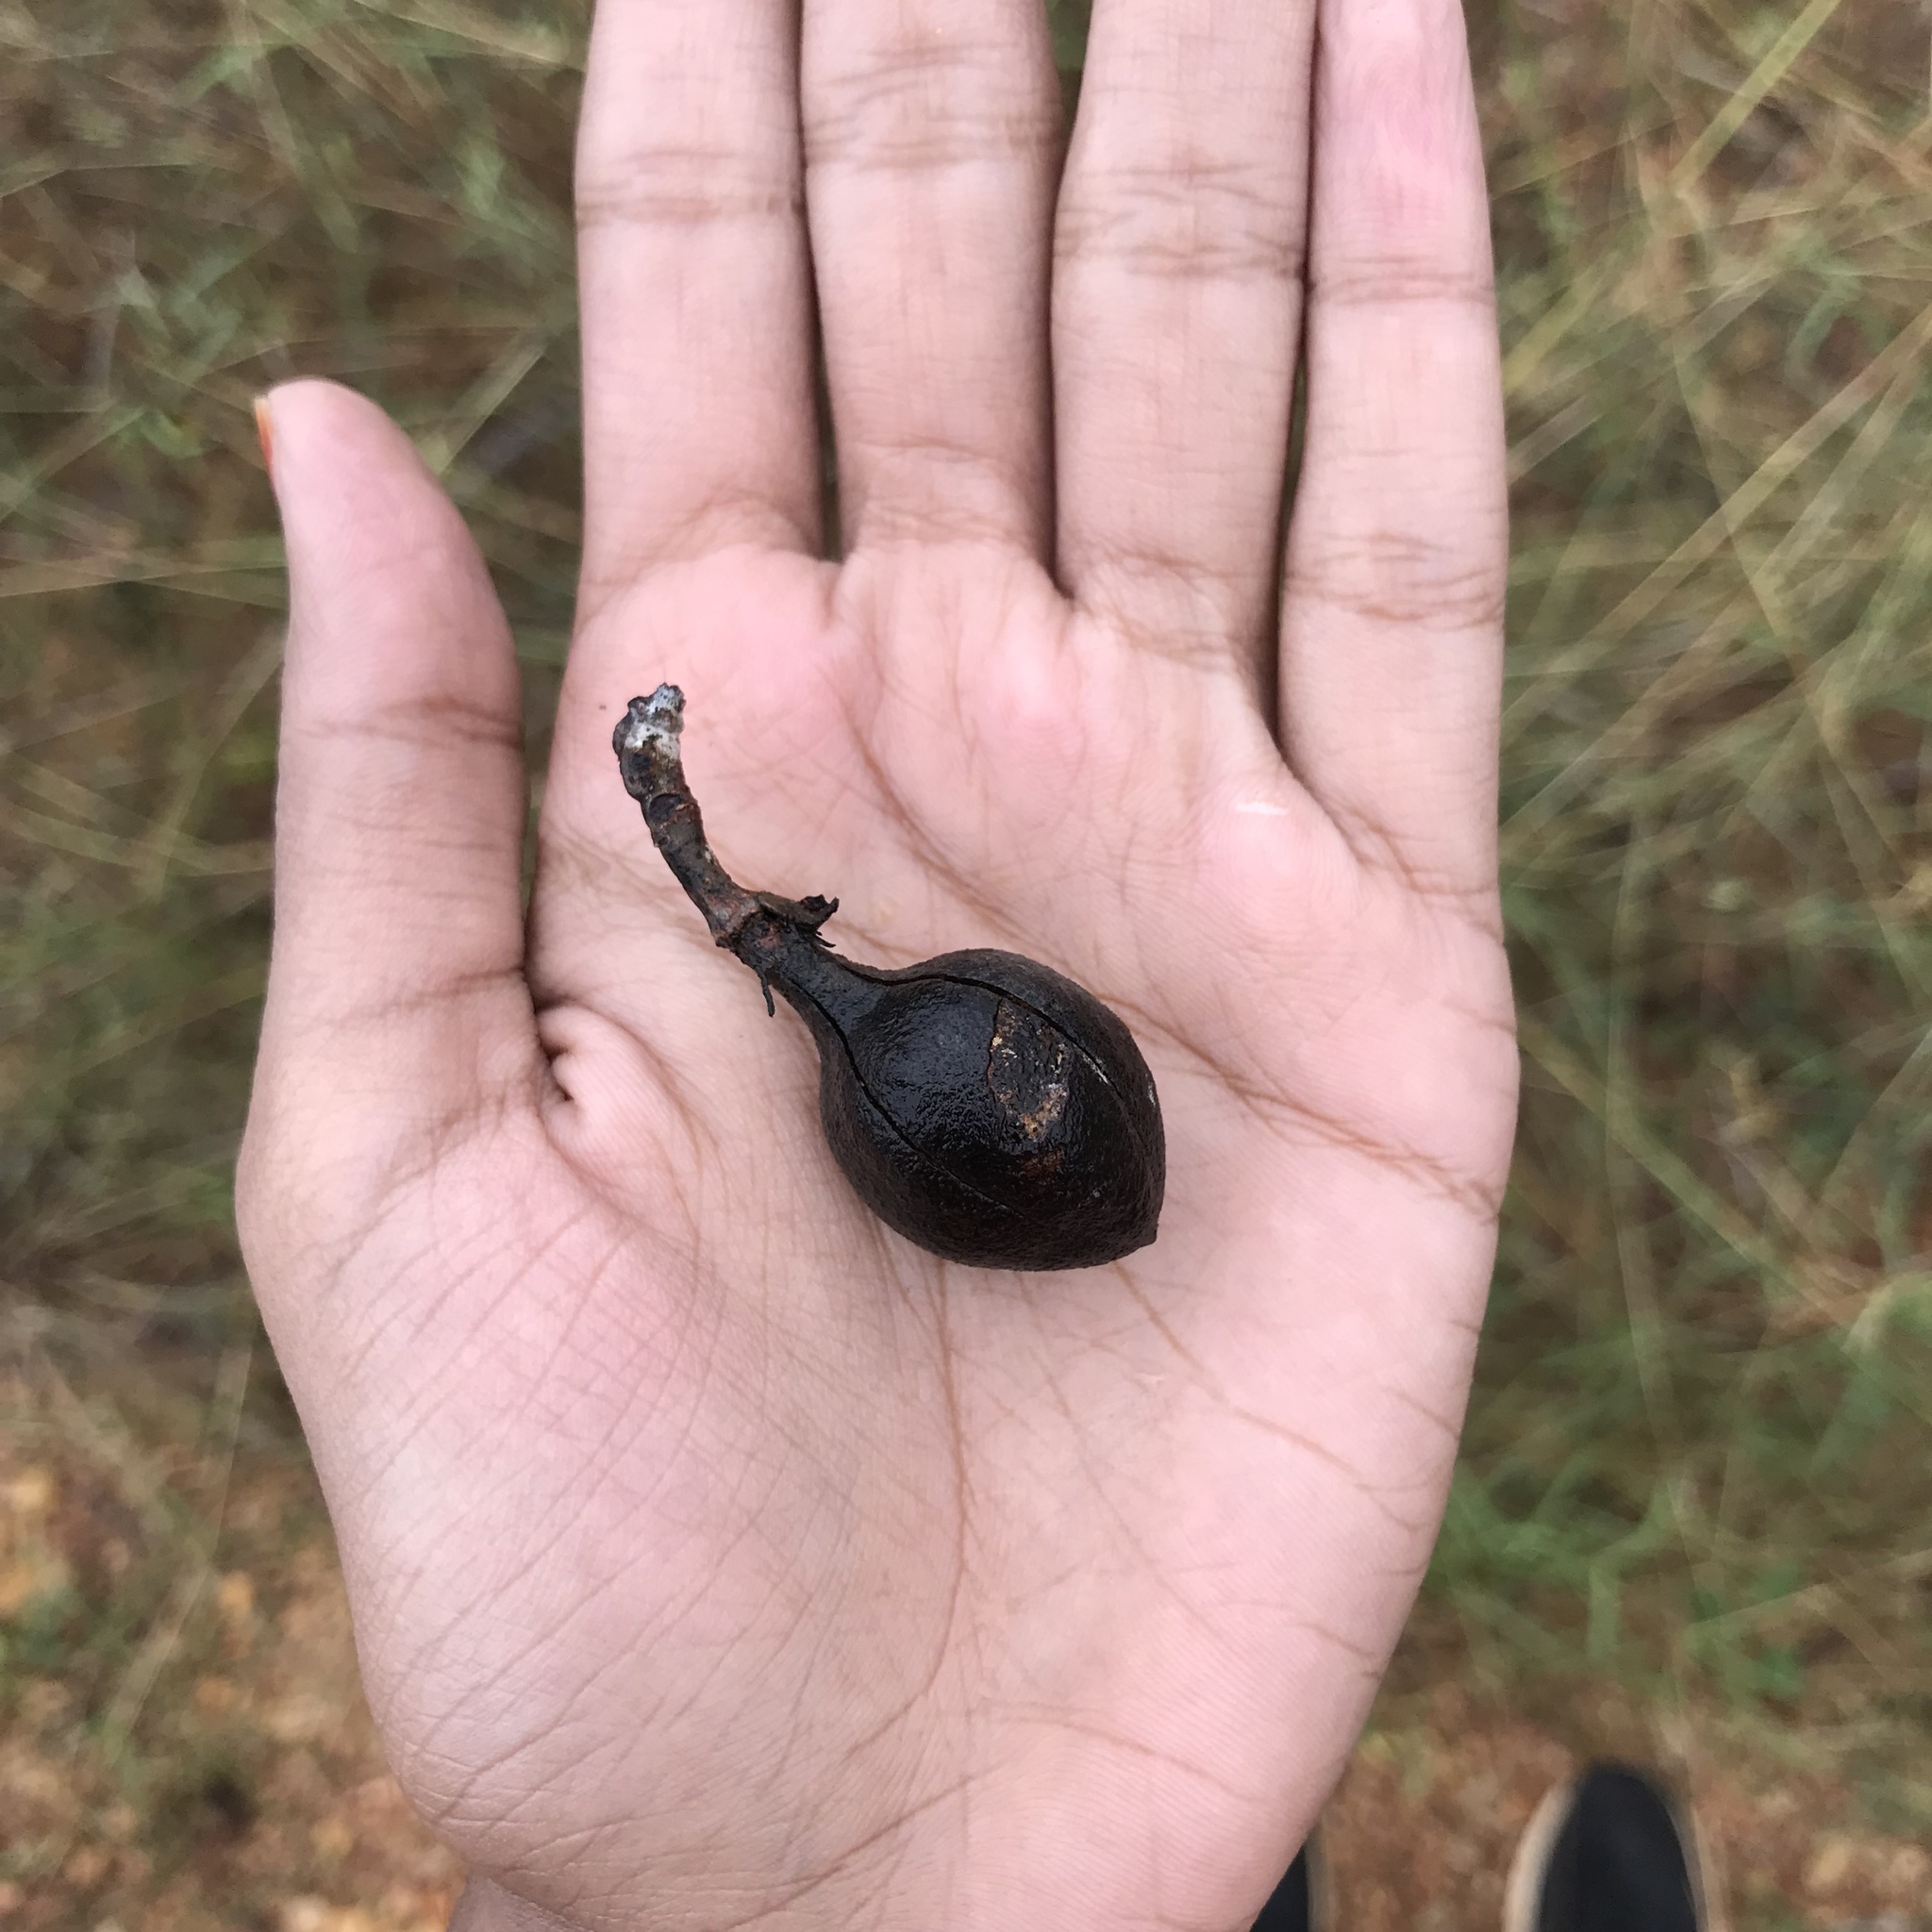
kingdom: Plantae
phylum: Tracheophyta
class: Magnoliopsida
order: Malvales
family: Malvaceae
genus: Pterospermum
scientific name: Pterospermum suberifolium
